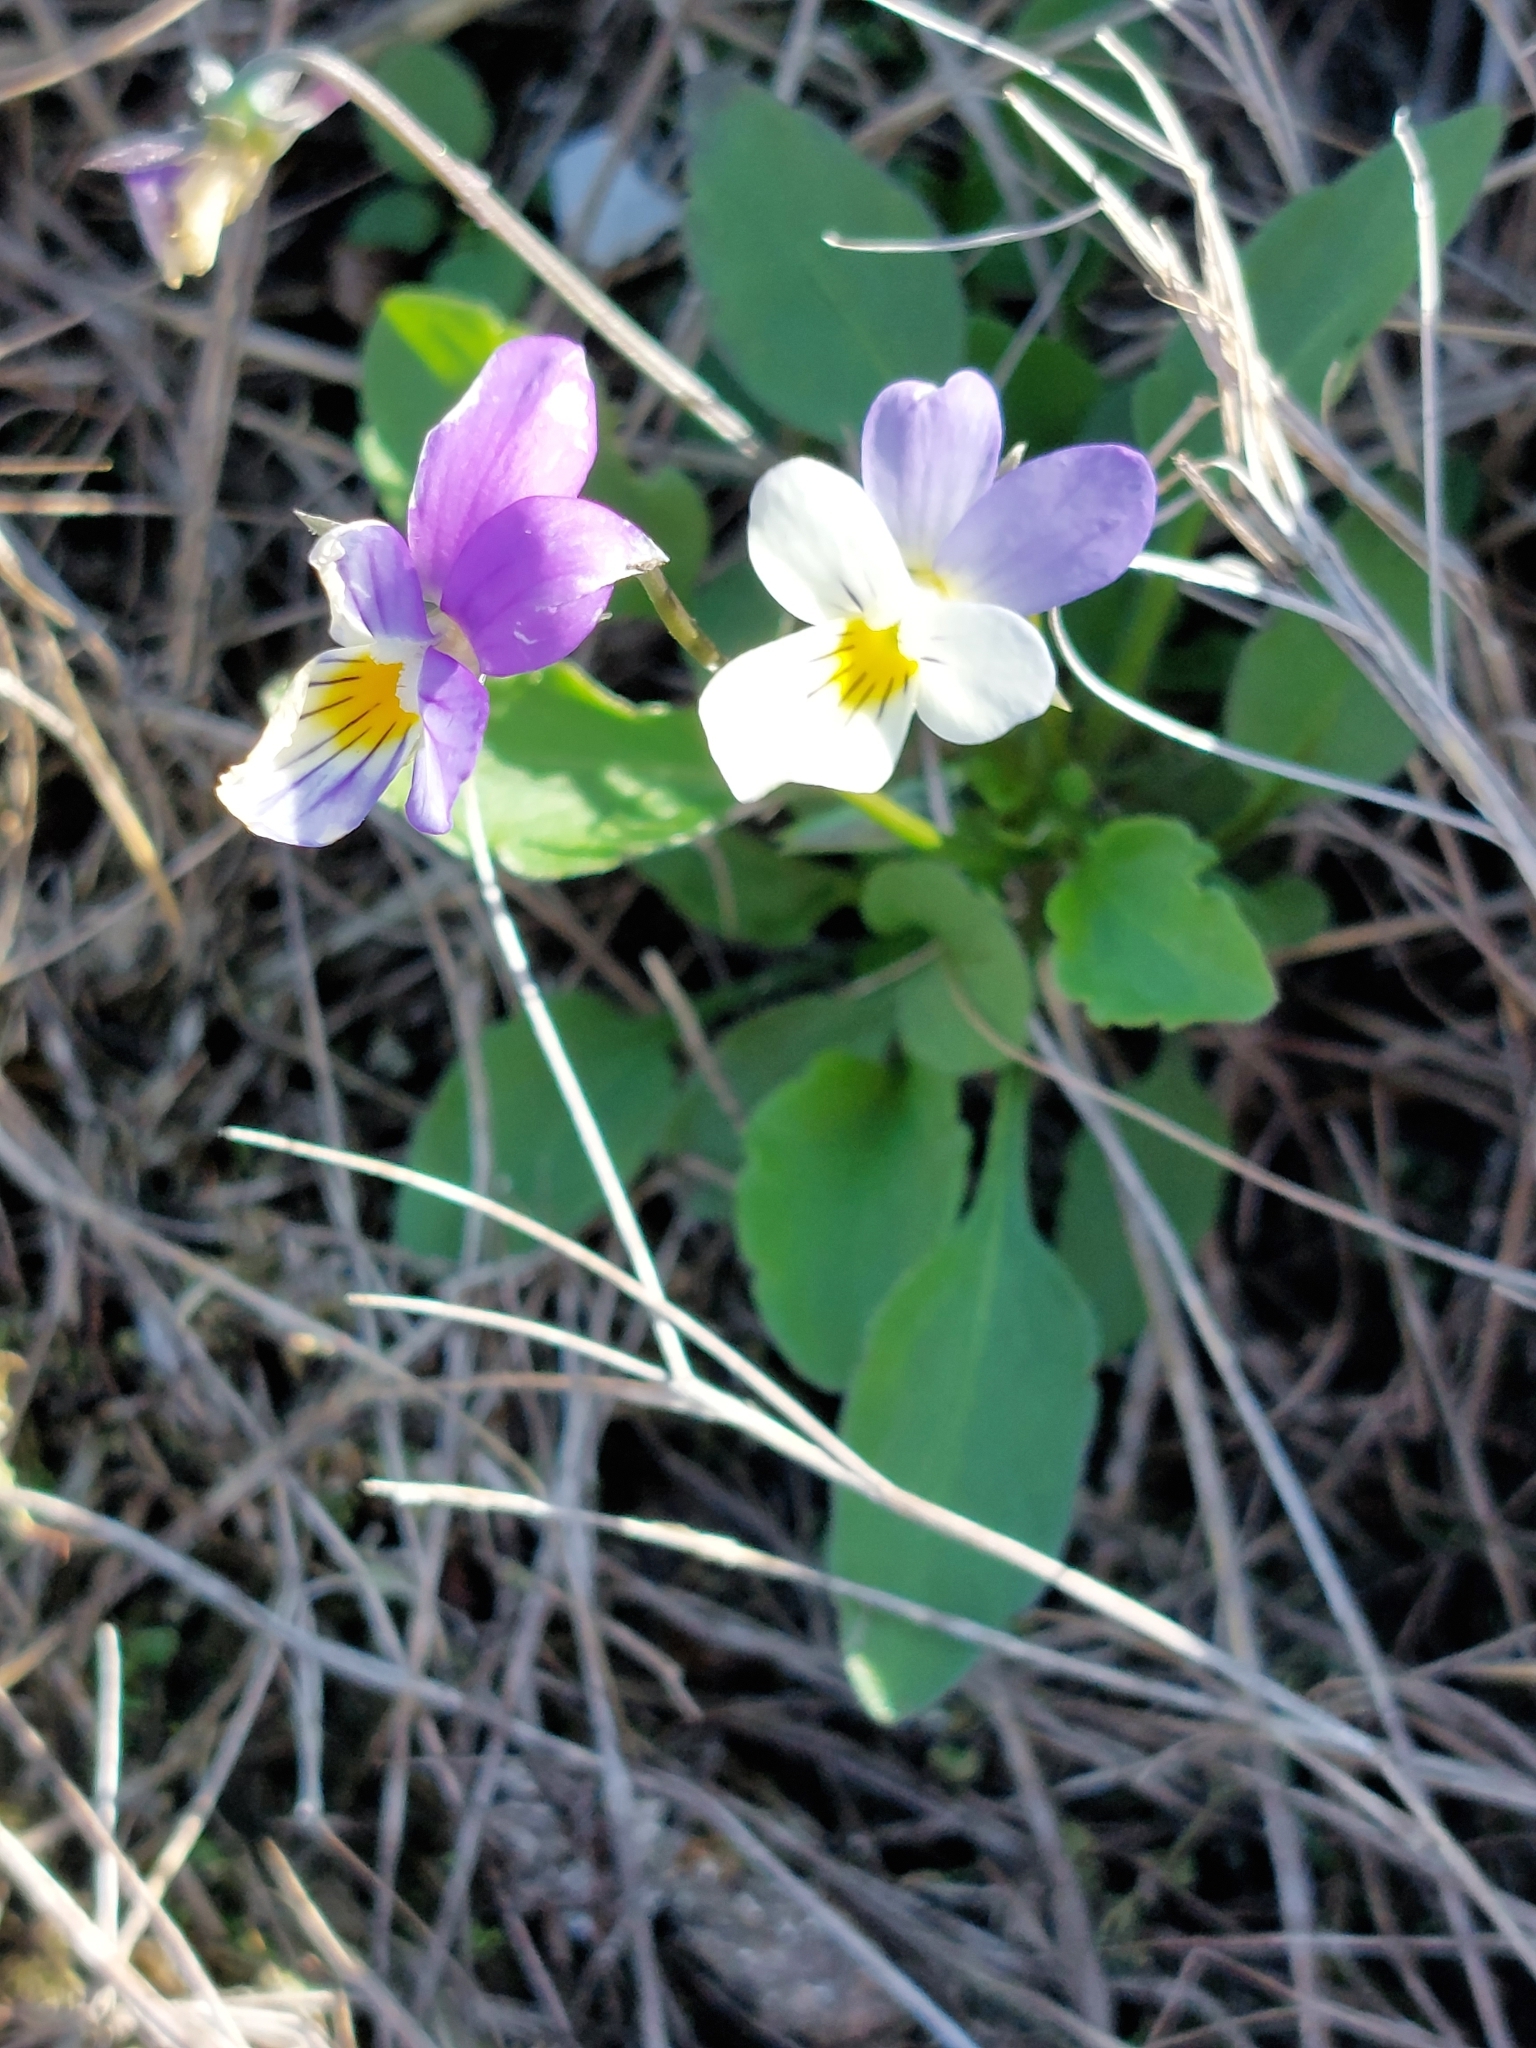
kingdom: Plantae
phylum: Tracheophyta
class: Magnoliopsida
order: Malpighiales
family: Violaceae
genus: Viola
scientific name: Viola tricolor
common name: Pansy
